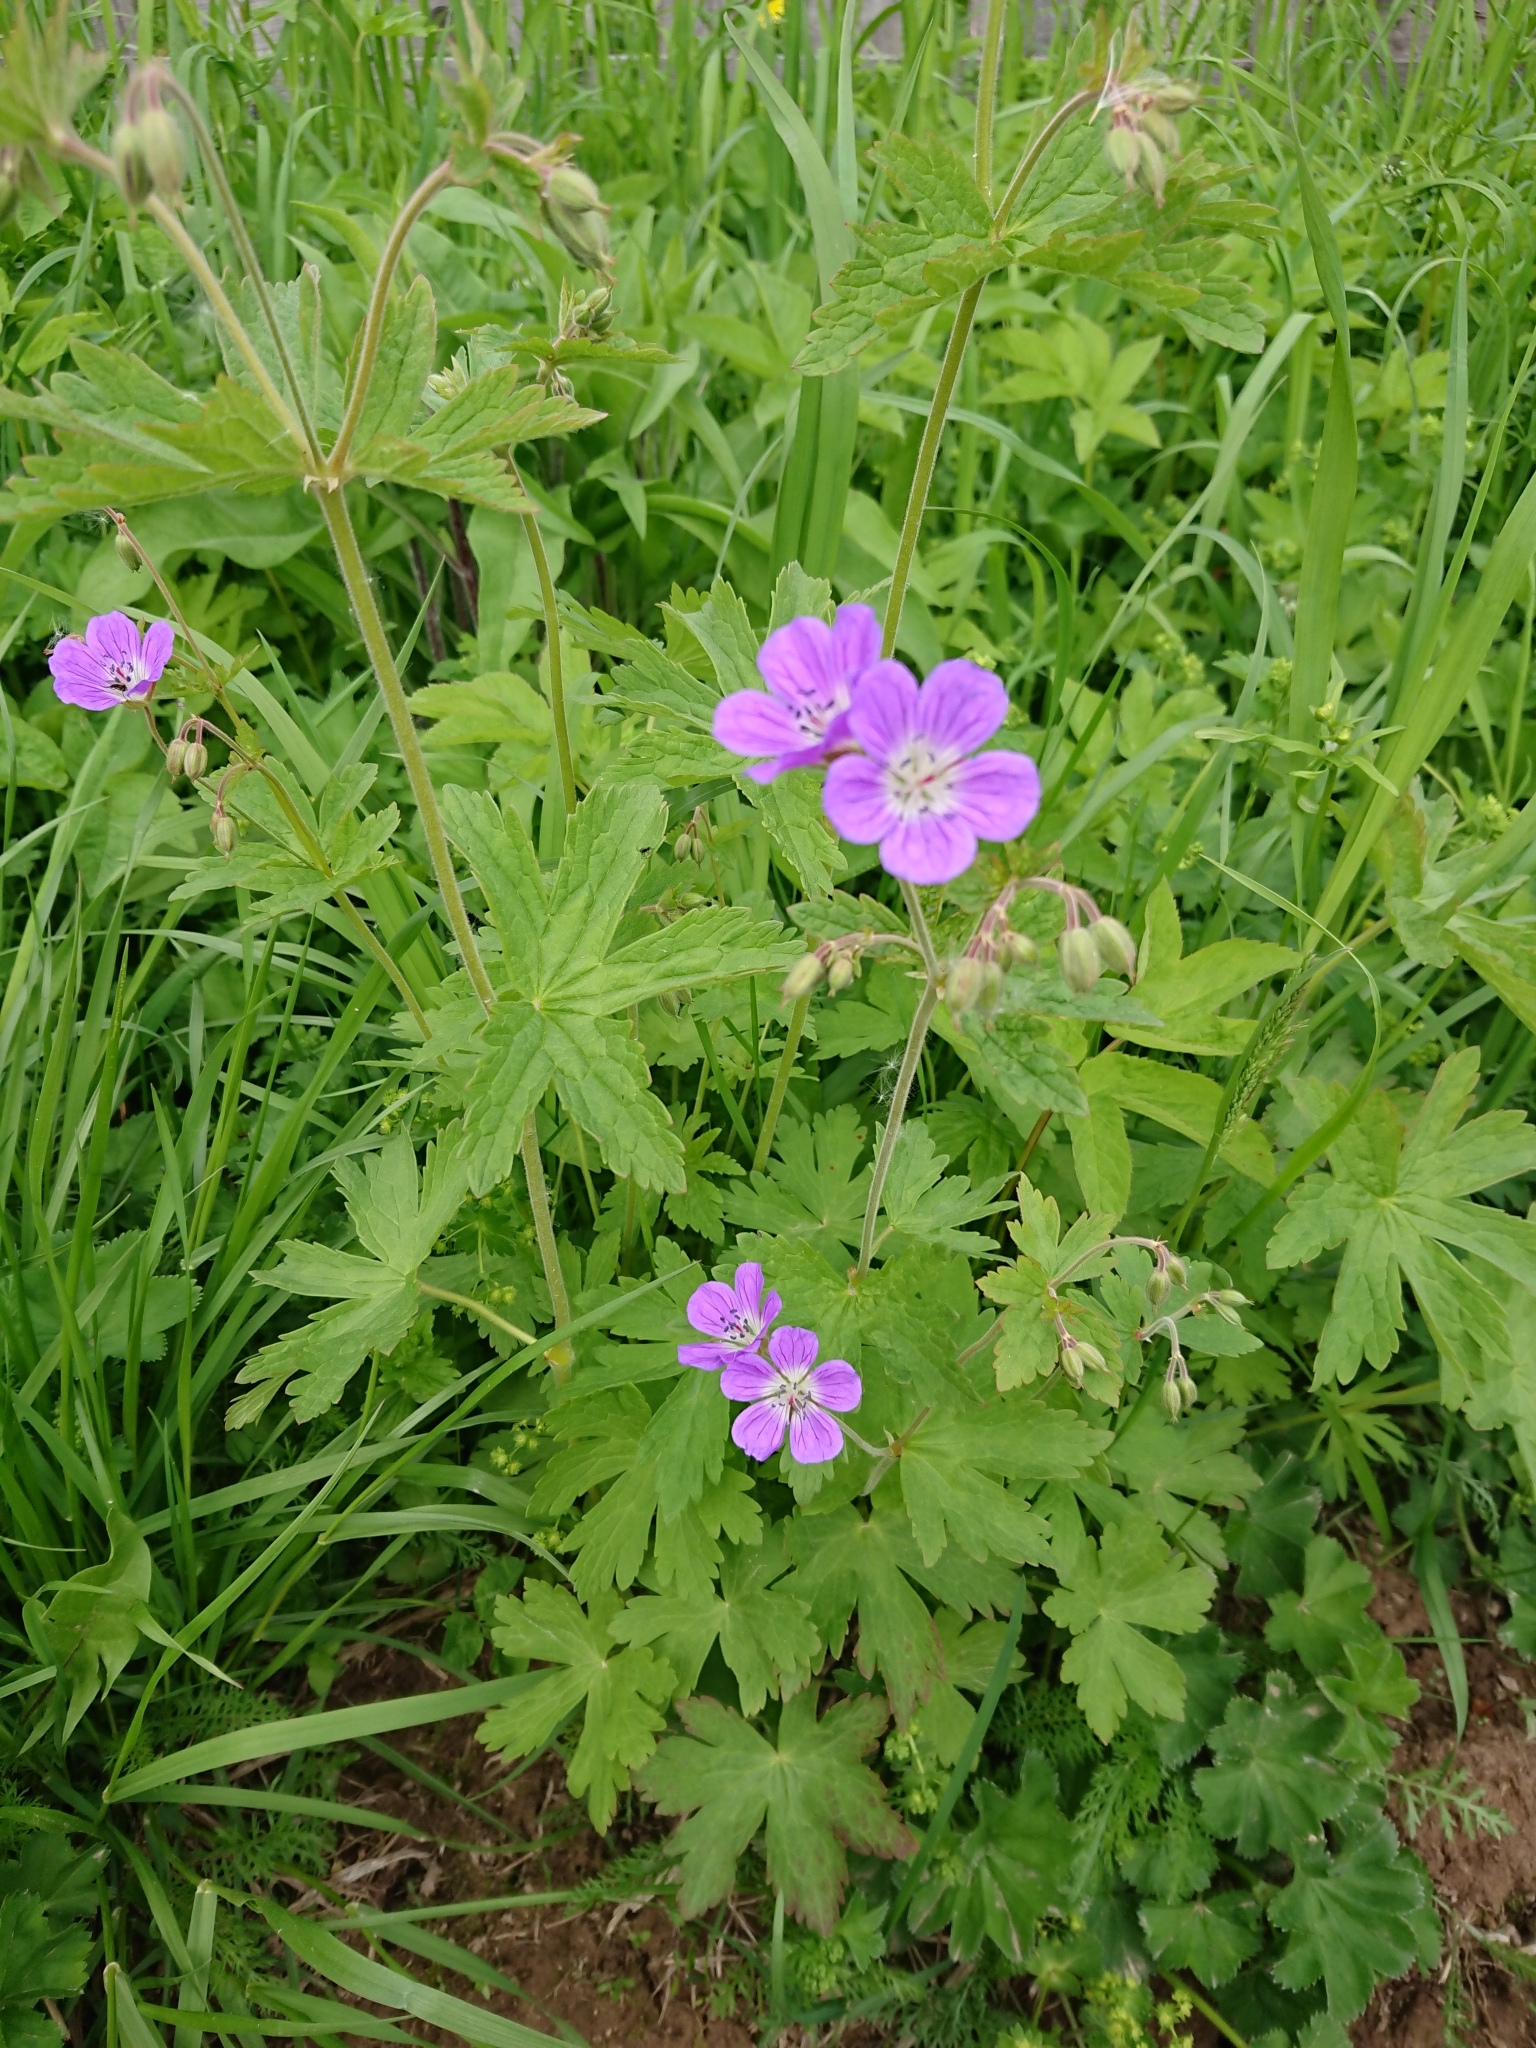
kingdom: Plantae
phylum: Tracheophyta
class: Magnoliopsida
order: Geraniales
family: Geraniaceae
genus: Geranium
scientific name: Geranium sylvaticum
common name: Wood crane's-bill
